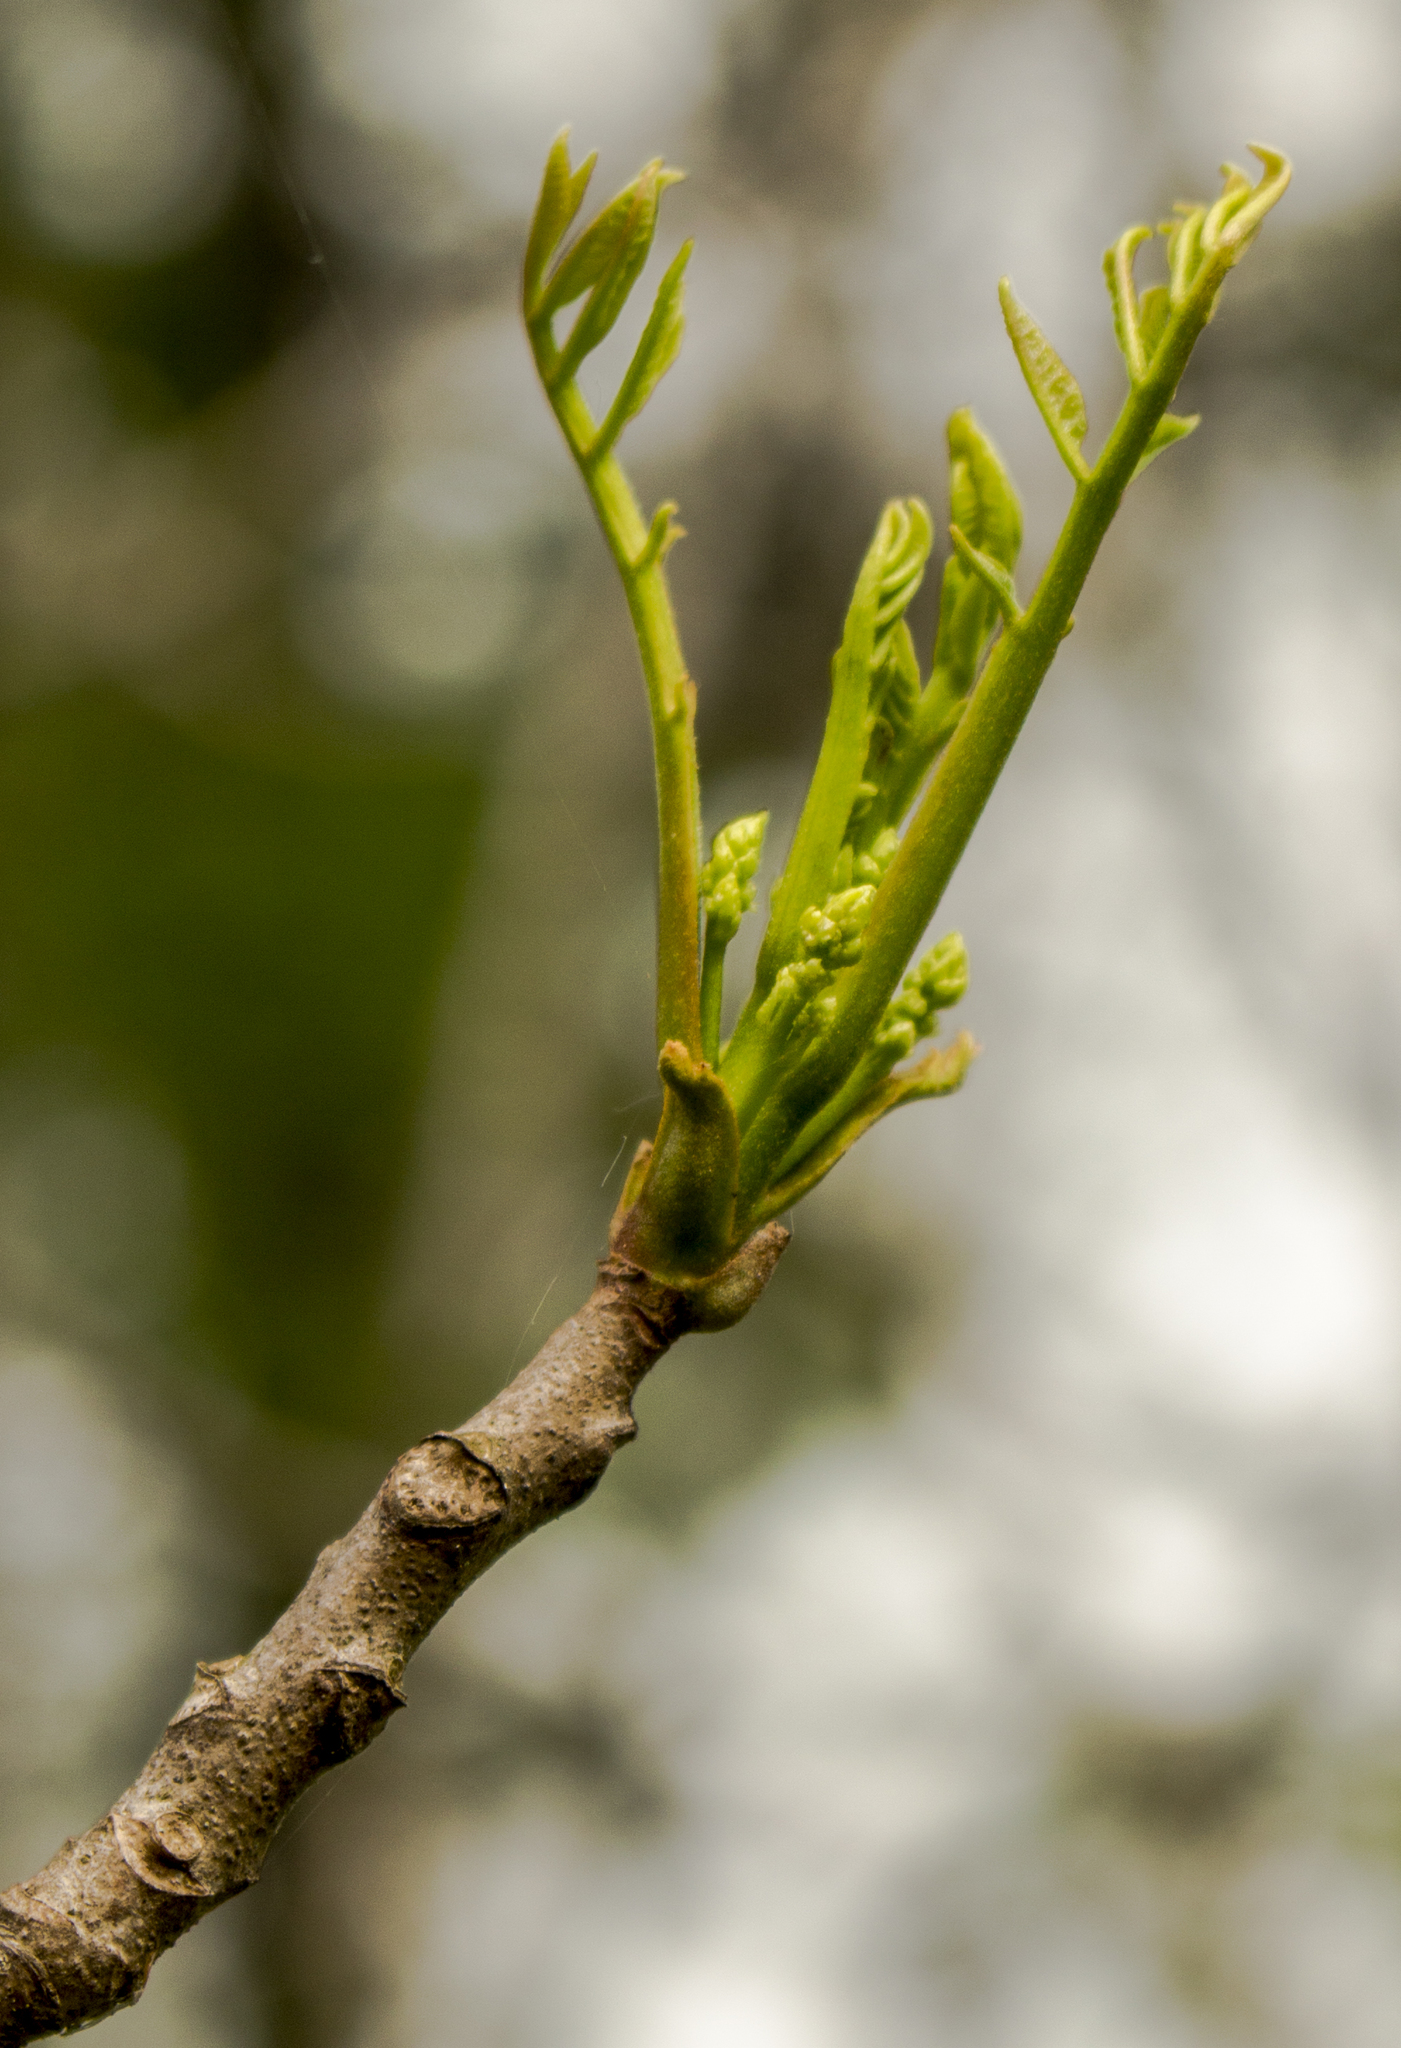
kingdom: Plantae
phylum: Tracheophyta
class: Magnoliopsida
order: Sapindales
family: Anacardiaceae
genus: Toxicodendron
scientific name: Toxicodendron vernix
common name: Poison sumac
